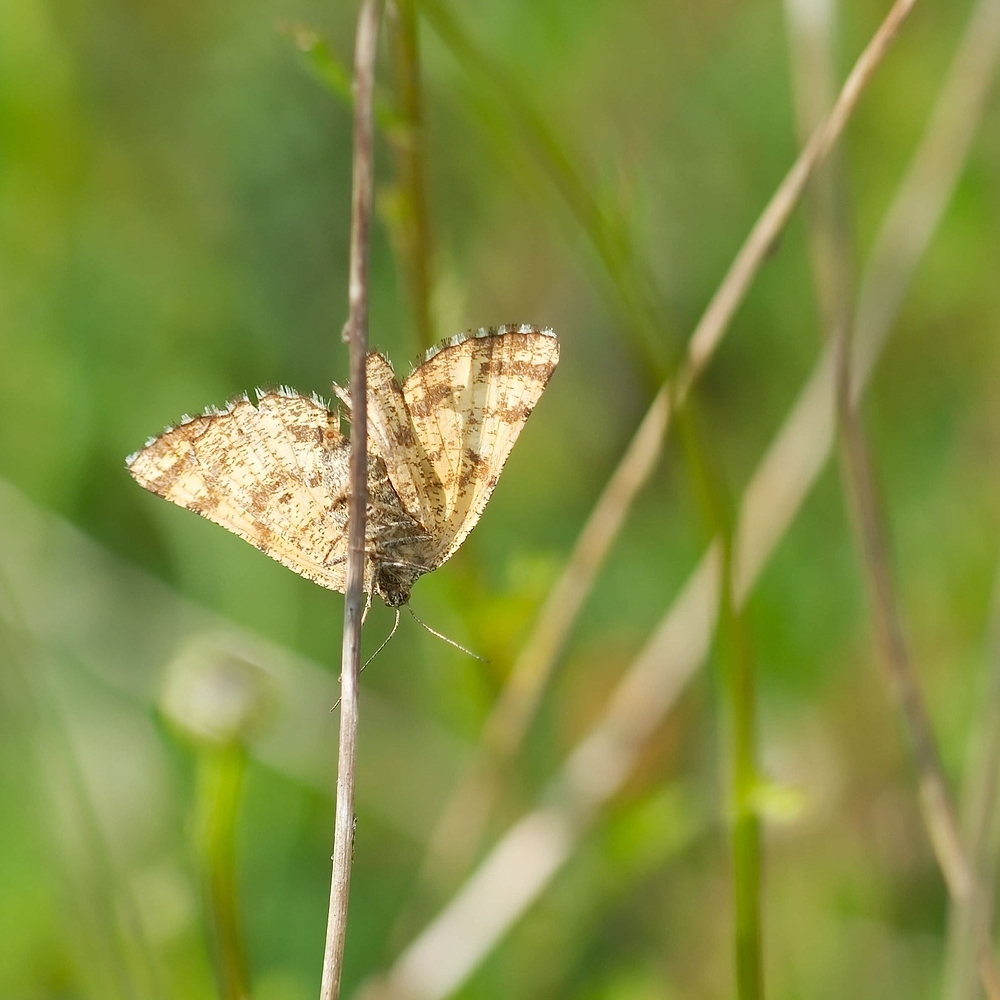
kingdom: Animalia
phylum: Arthropoda
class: Insecta
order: Lepidoptera
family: Geometridae
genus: Ematurga
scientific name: Ematurga atomaria
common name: Common heath
